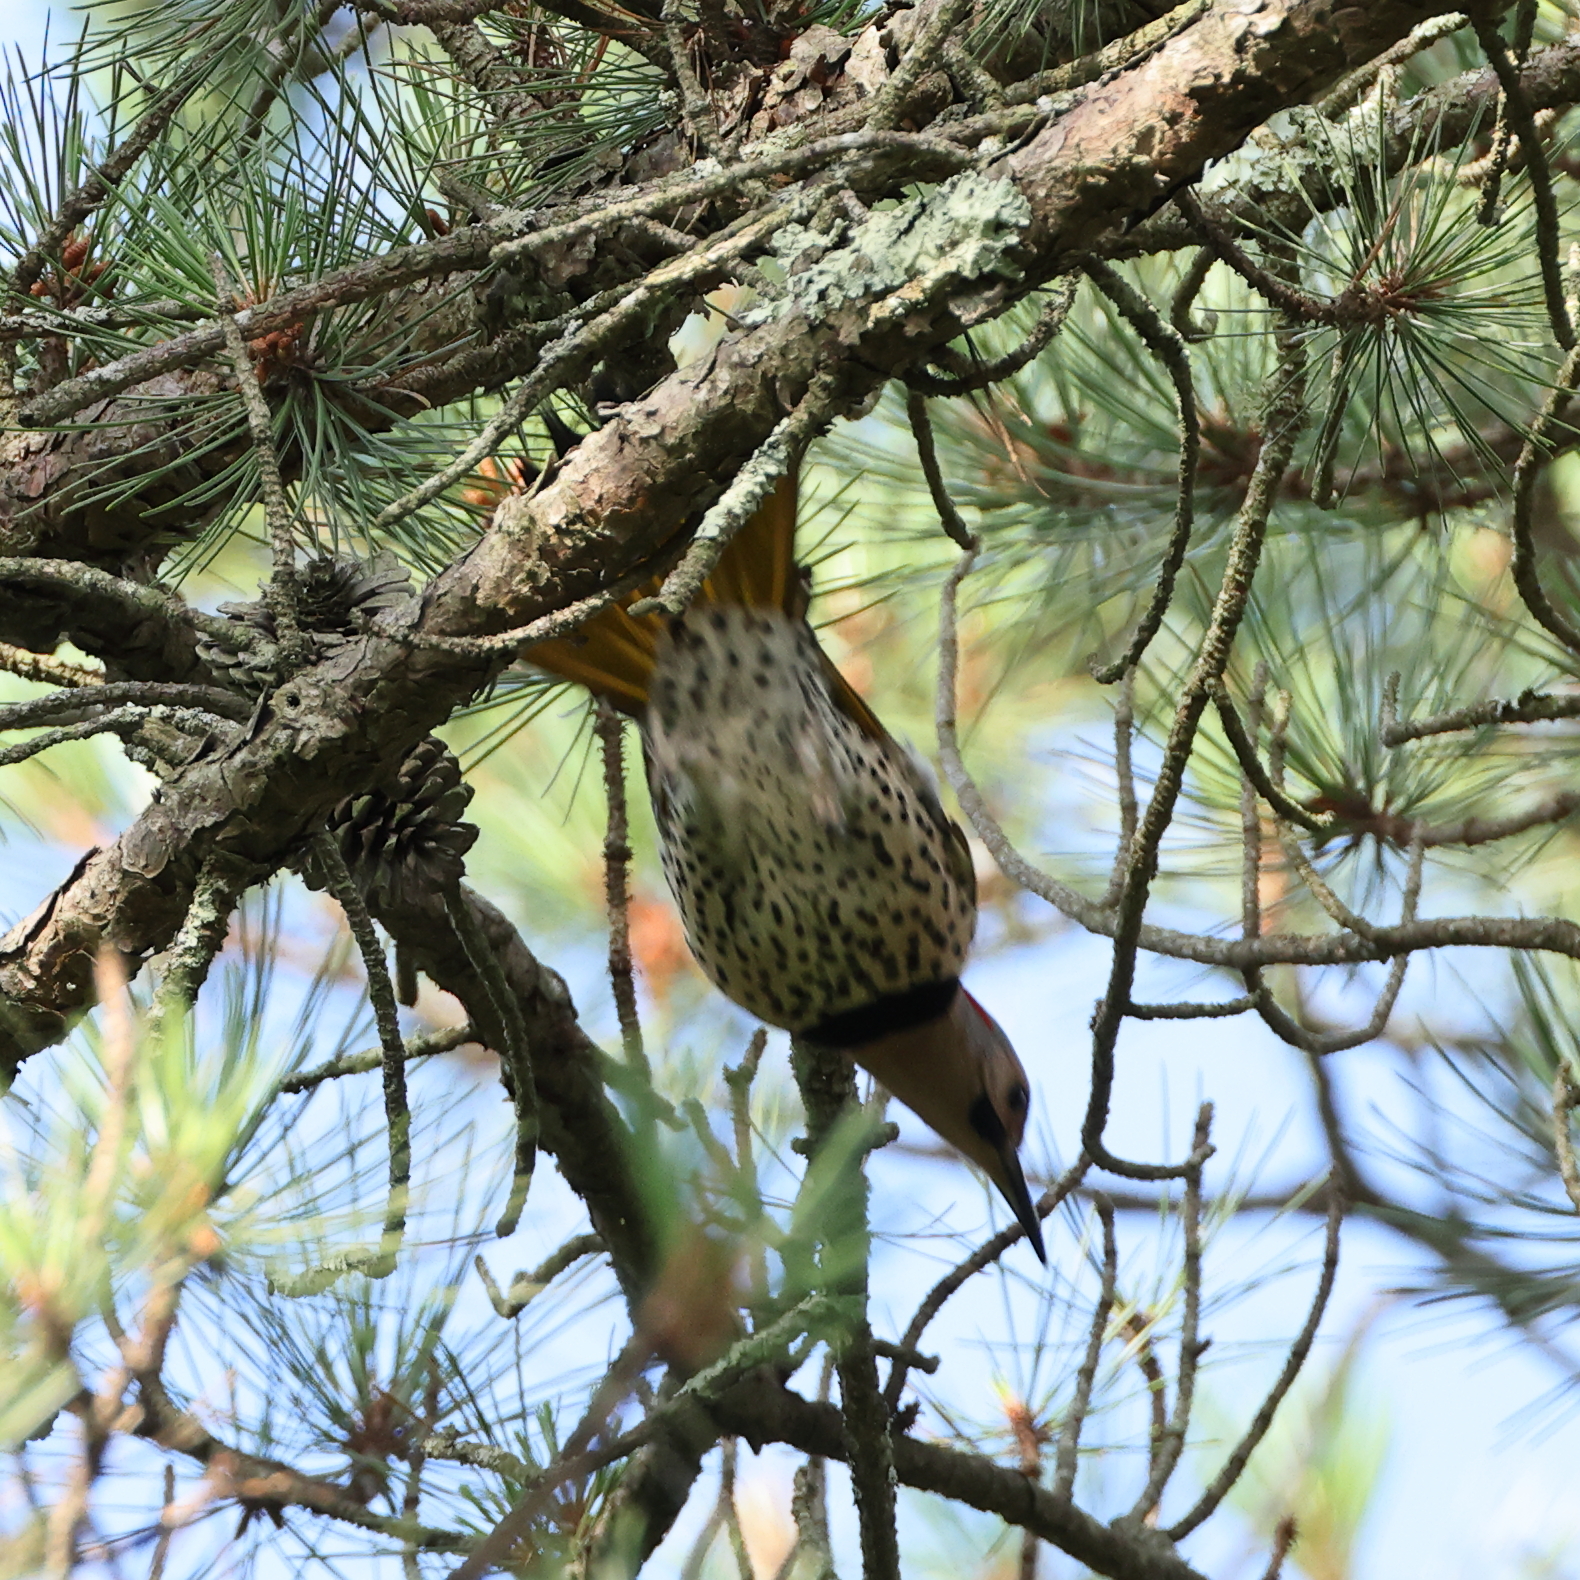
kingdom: Animalia
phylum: Chordata
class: Aves
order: Piciformes
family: Picidae
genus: Colaptes
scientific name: Colaptes auratus
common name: Northern flicker
